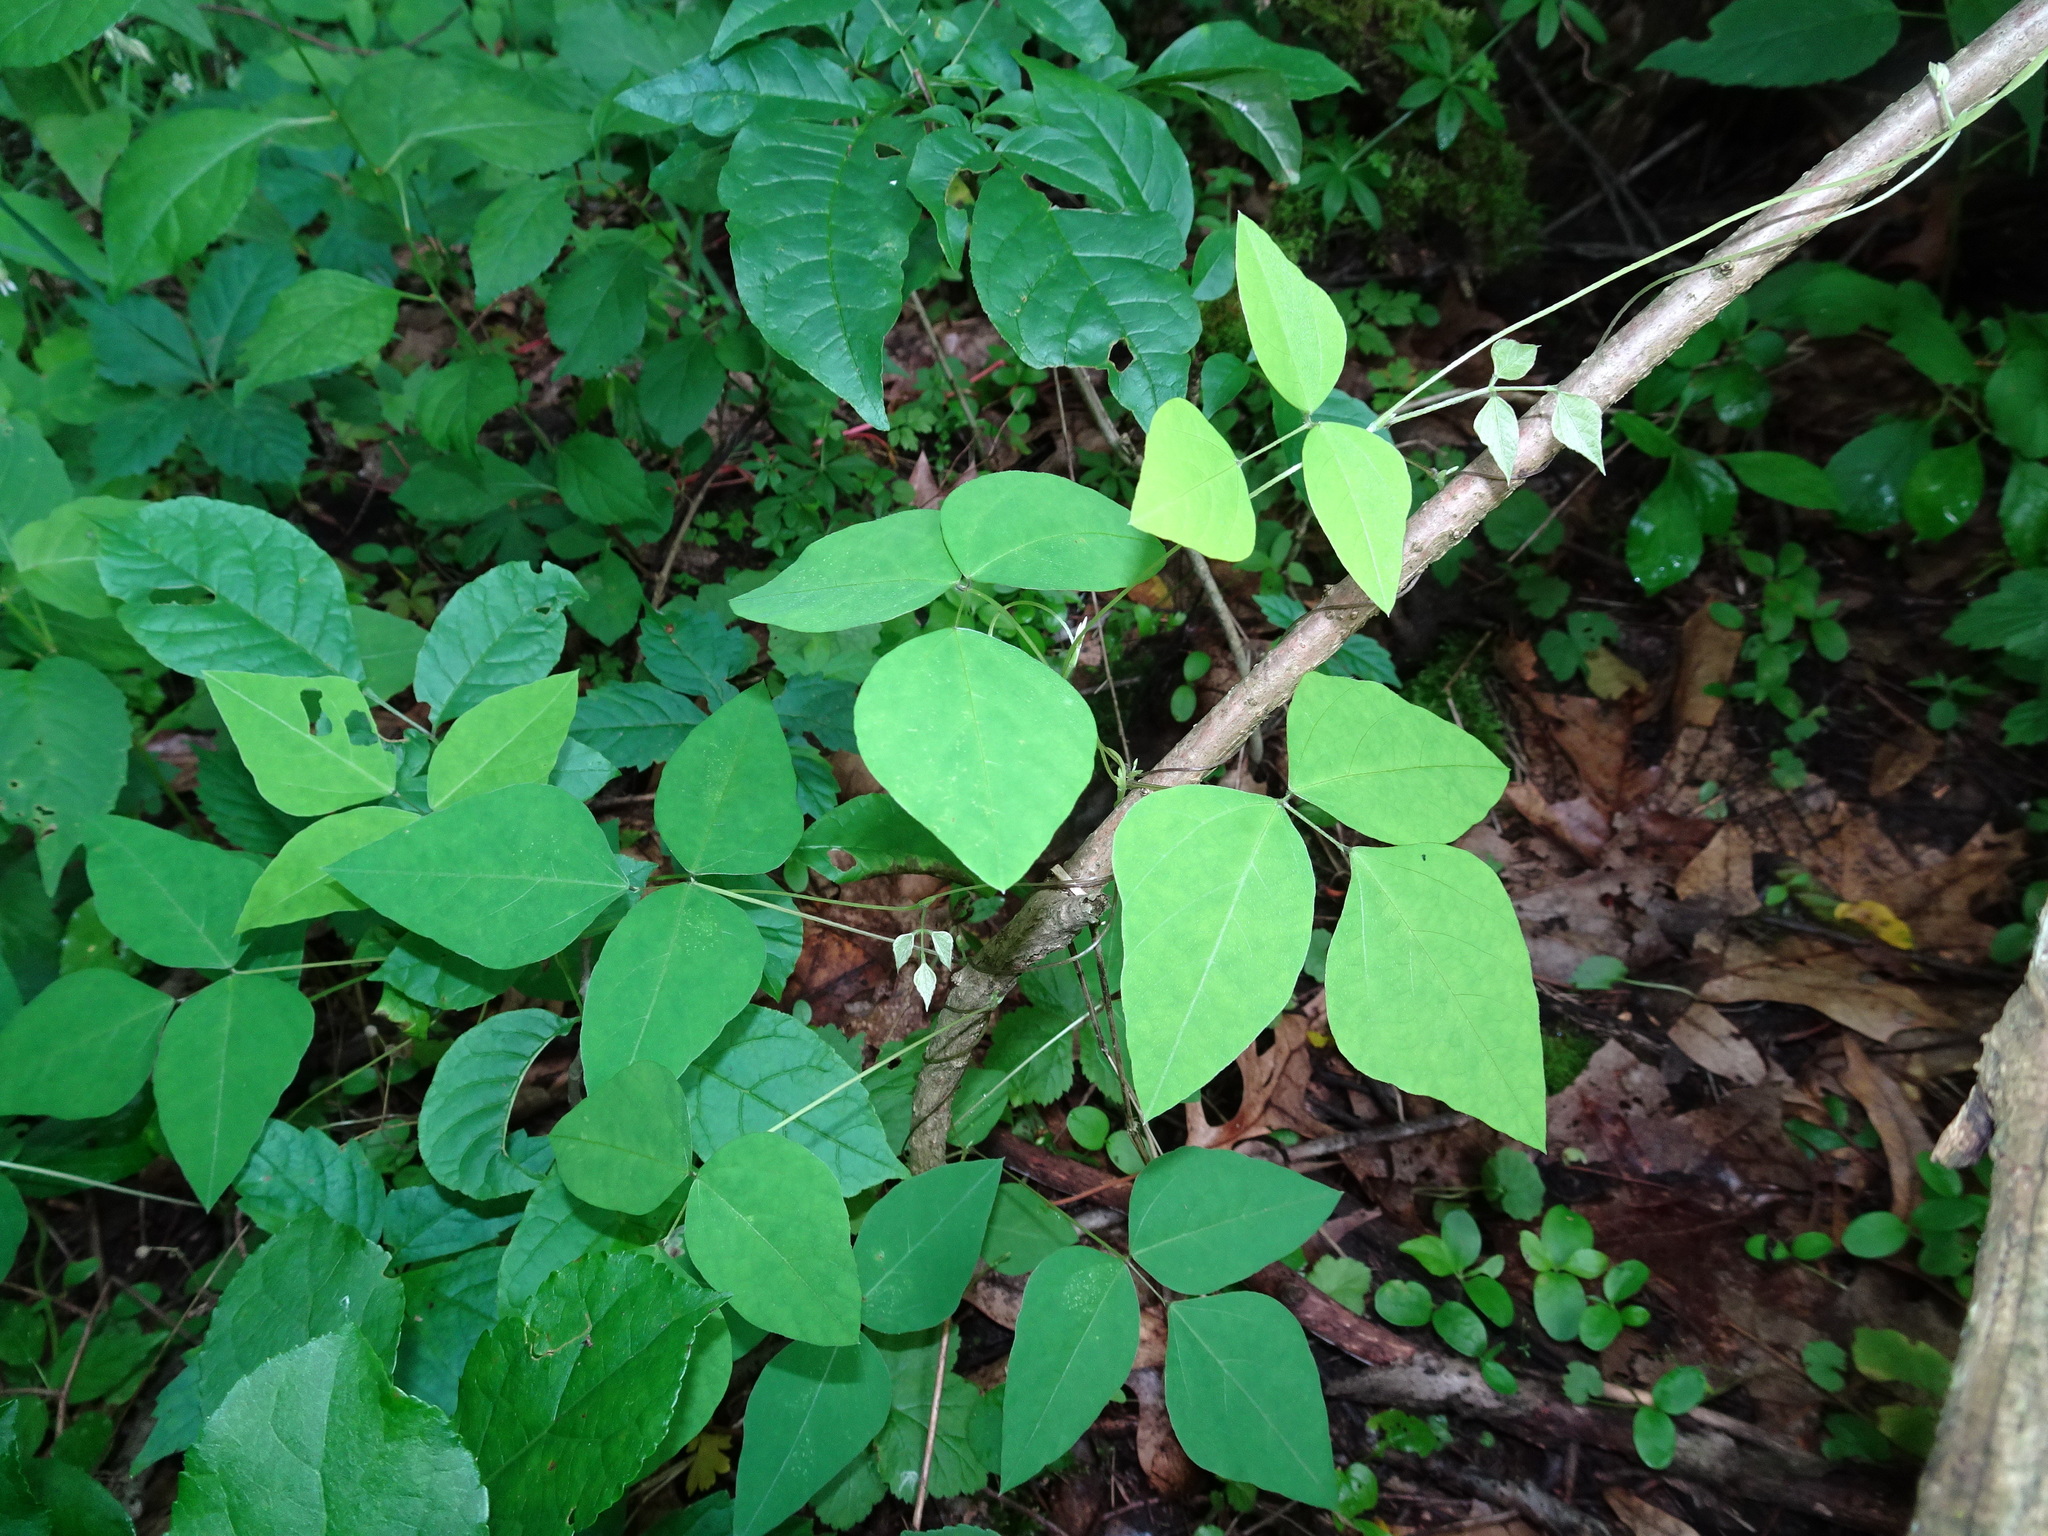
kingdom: Plantae
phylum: Tracheophyta
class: Magnoliopsida
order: Fabales
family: Fabaceae
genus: Amphicarpaea
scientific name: Amphicarpaea bracteata
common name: American hog peanut
